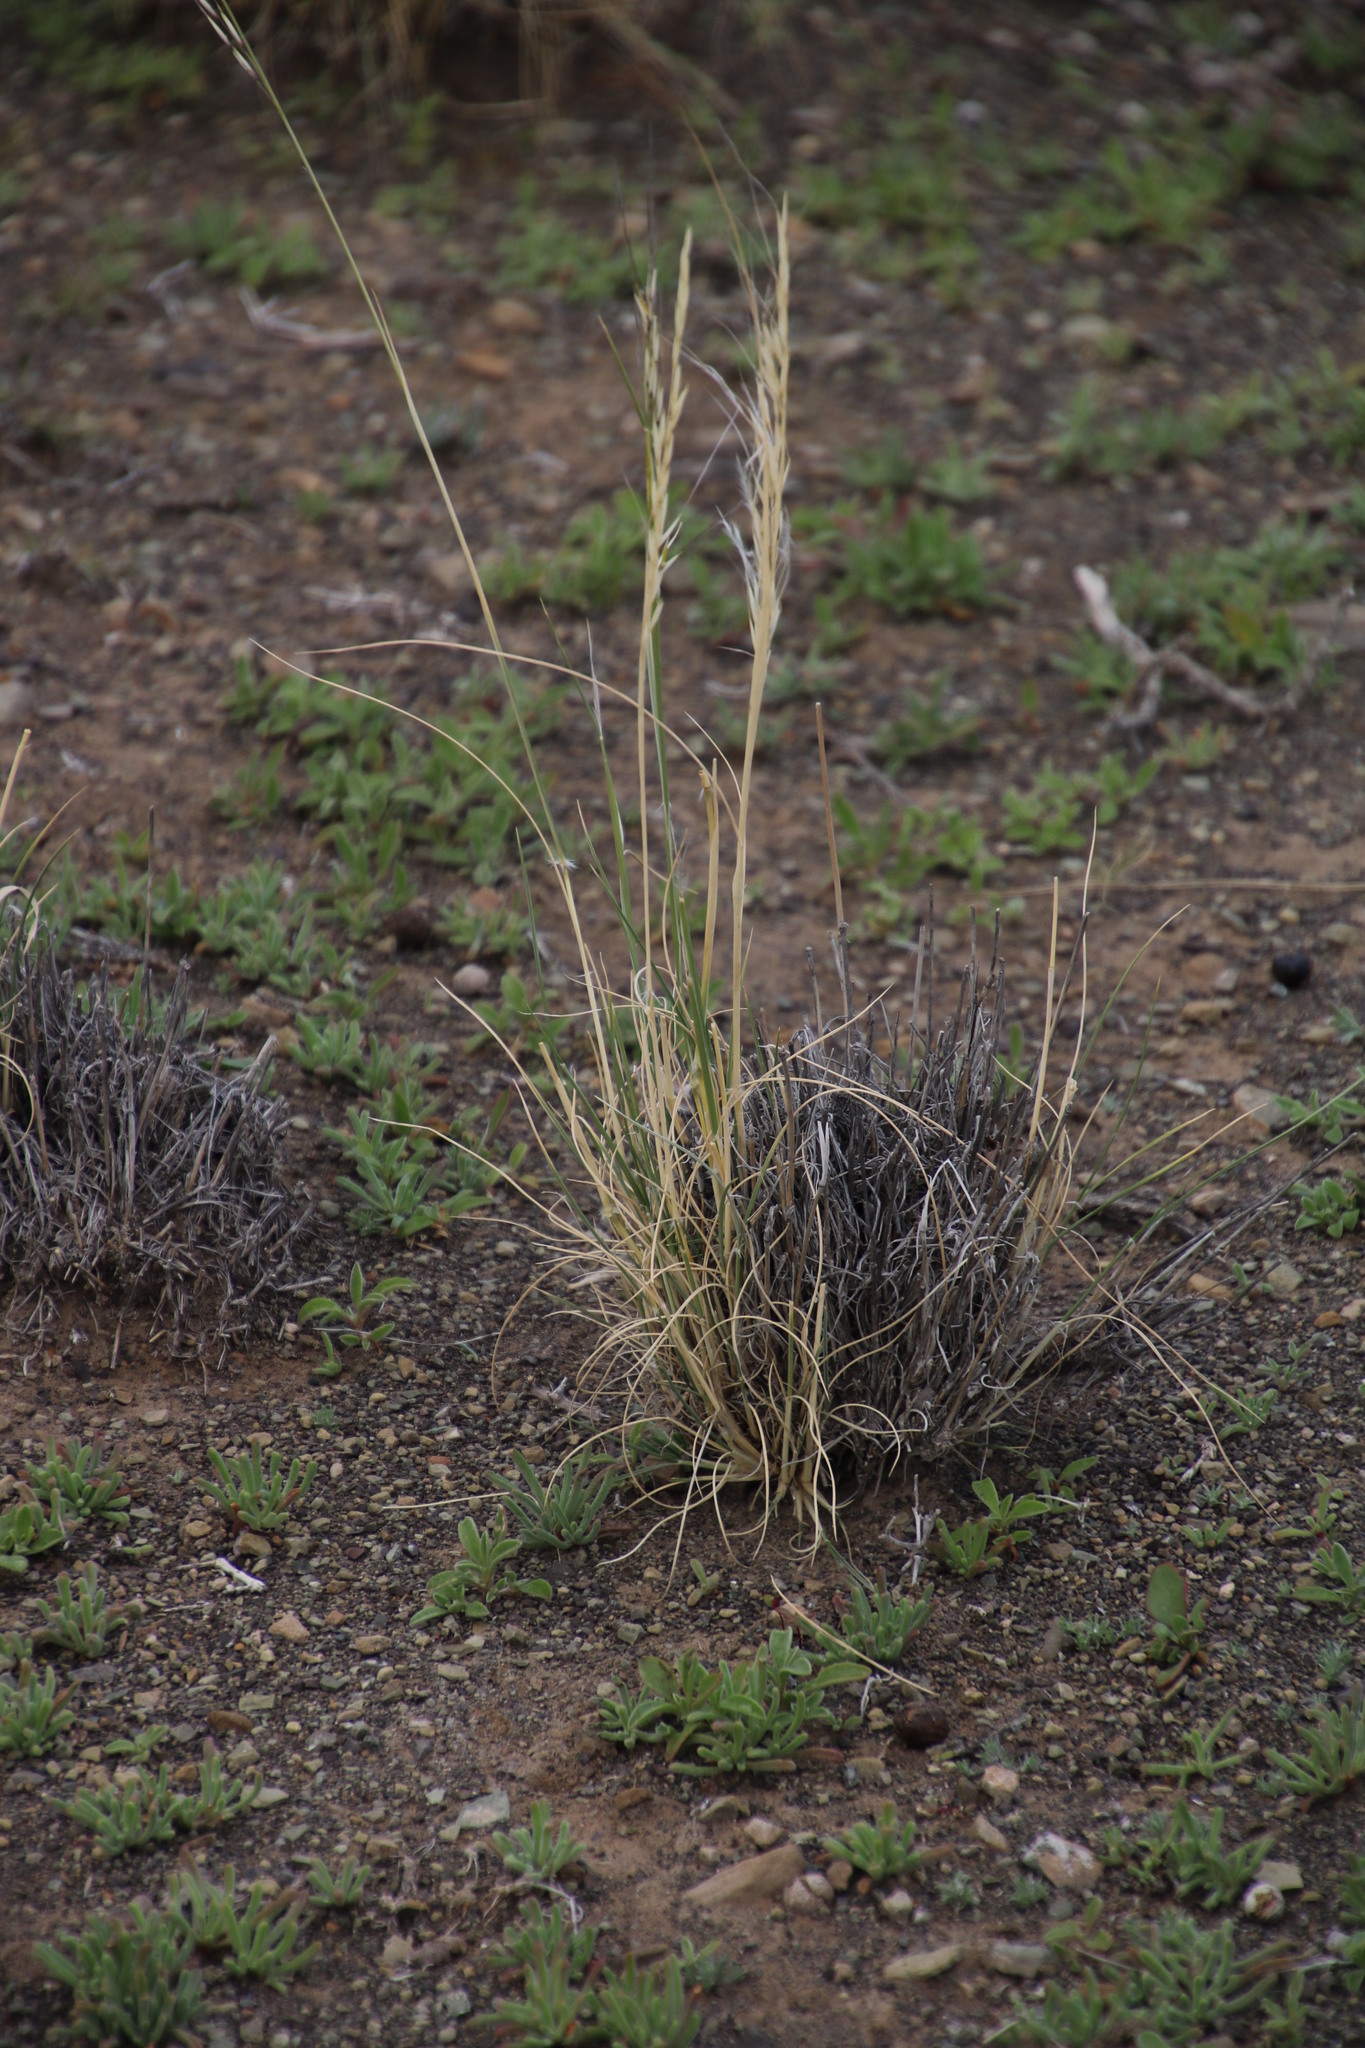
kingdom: Plantae
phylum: Tracheophyta
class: Liliopsida
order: Poales
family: Poaceae
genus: Stipagrostis
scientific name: Stipagrostis ciliata
